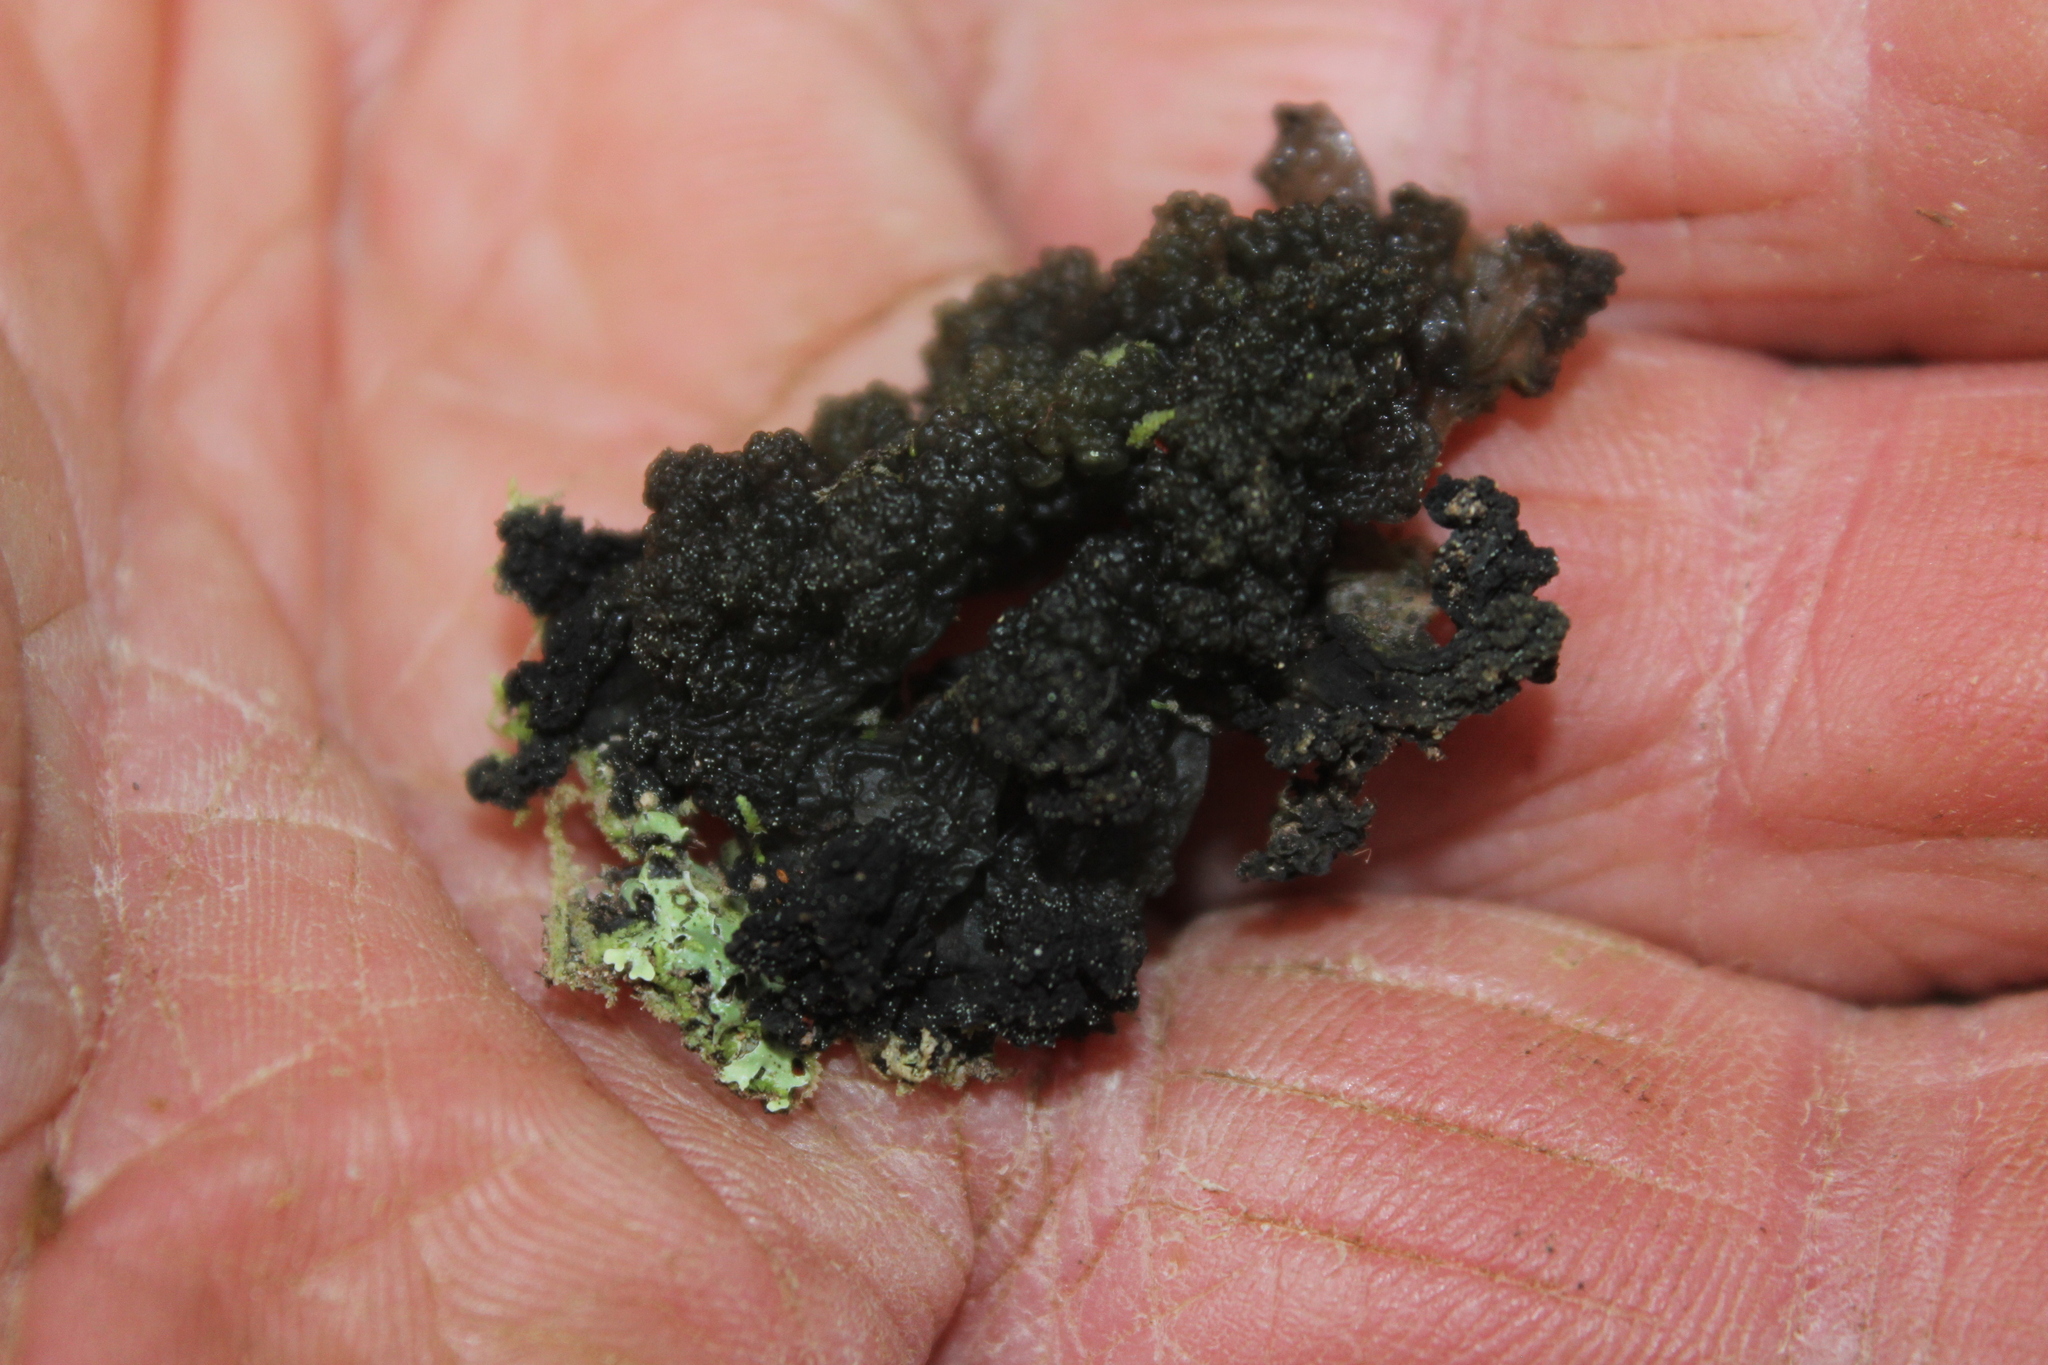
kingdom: Fungi
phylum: Ascomycota
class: Lecanoromycetes
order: Arctomiales
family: Arctomiaceae
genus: Arctomia
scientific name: Arctomia fascicularis
